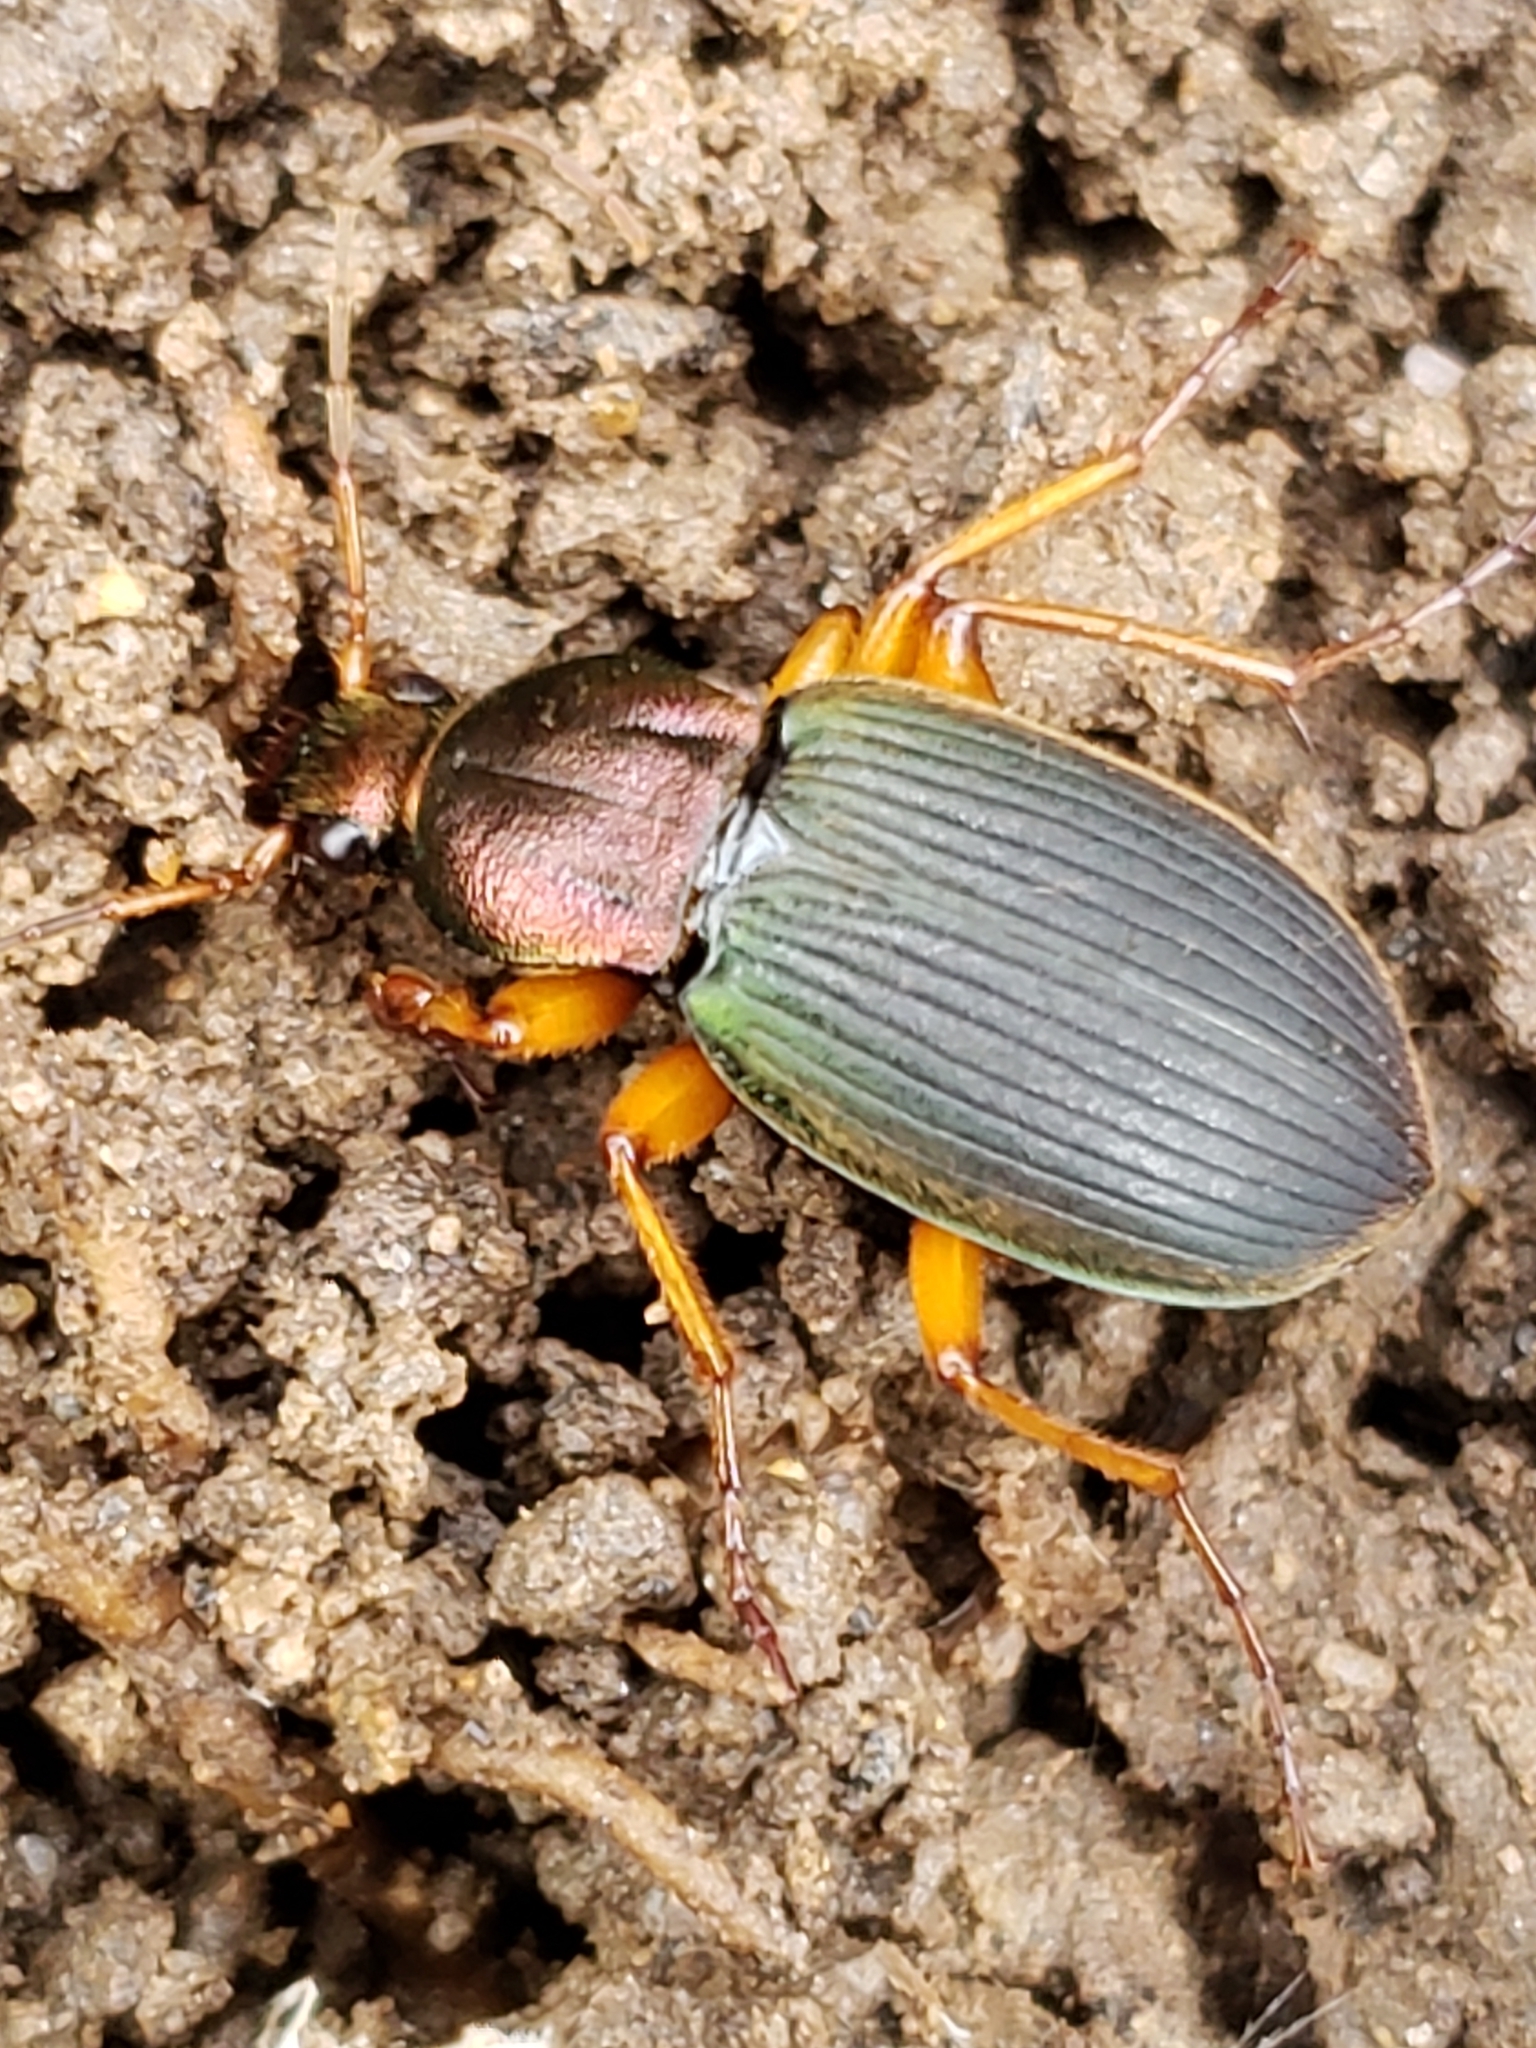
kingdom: Animalia
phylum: Arthropoda
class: Insecta
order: Coleoptera
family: Carabidae
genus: Chlaenius
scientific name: Chlaenius aestivus
